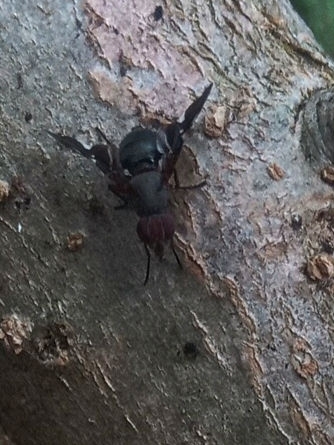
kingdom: Animalia
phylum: Arthropoda
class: Insecta
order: Diptera
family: Ulidiidae
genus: Delphinia
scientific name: Delphinia picta
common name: Common picture-winged fly
